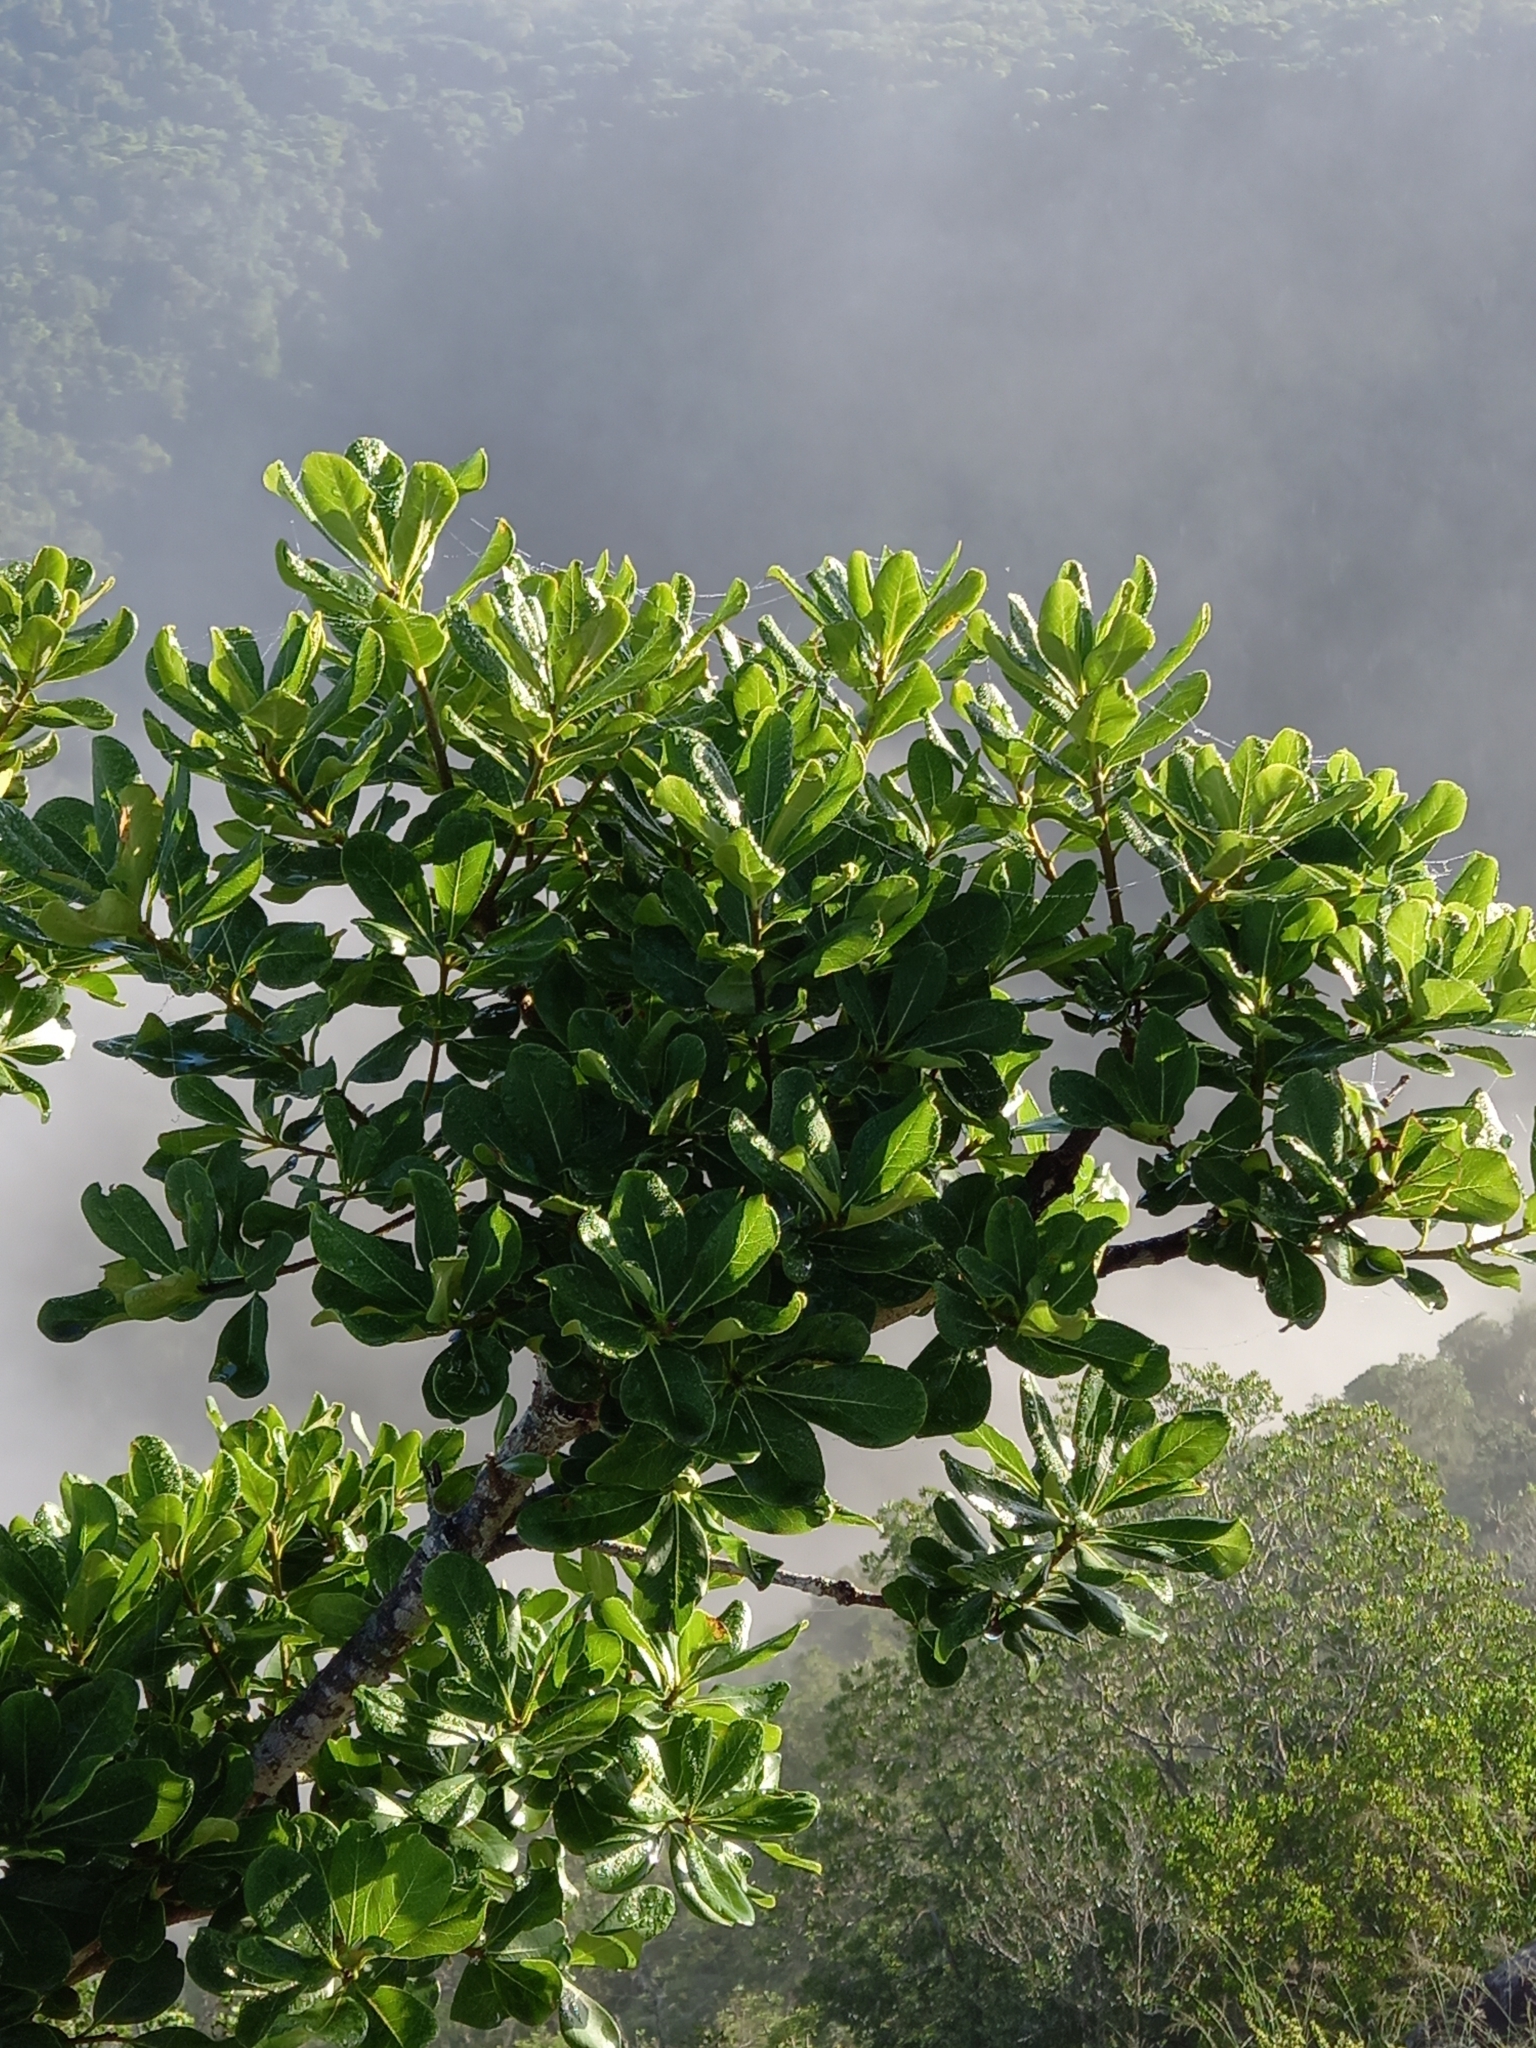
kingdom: Plantae
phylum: Tracheophyta
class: Magnoliopsida
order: Apiales
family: Pittosporaceae
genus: Pittosporum
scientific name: Pittosporum viridiflorum
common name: Cape cheesewood
